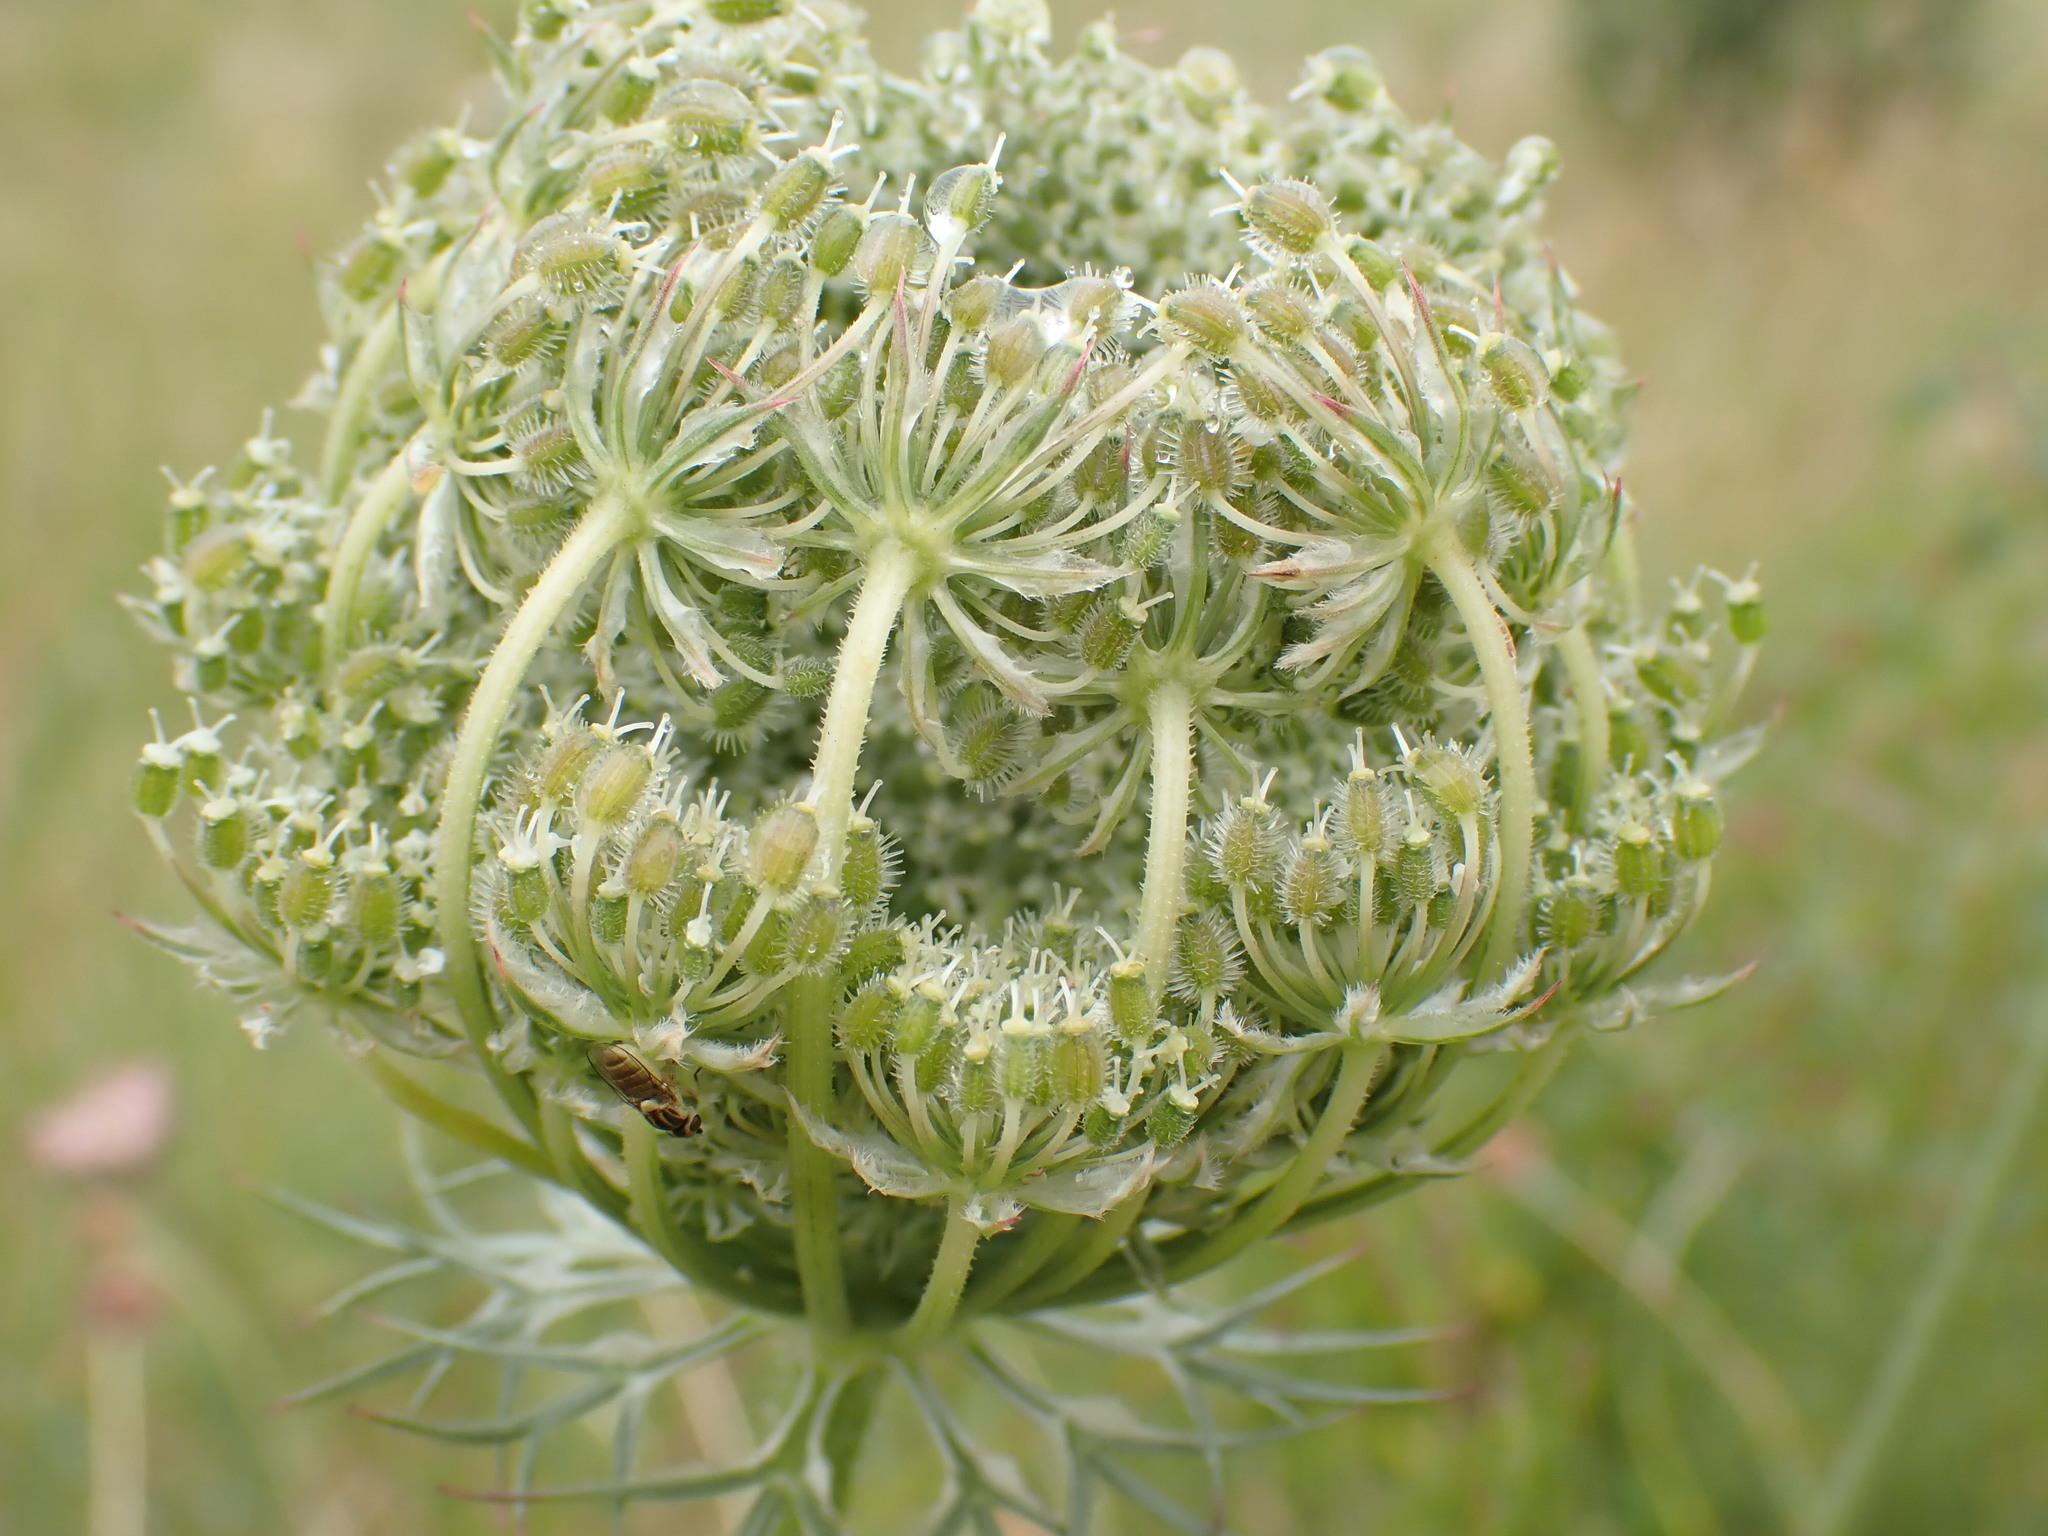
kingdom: Plantae
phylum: Tracheophyta
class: Magnoliopsida
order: Apiales
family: Apiaceae
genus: Daucus
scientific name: Daucus carota
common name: Wild carrot
